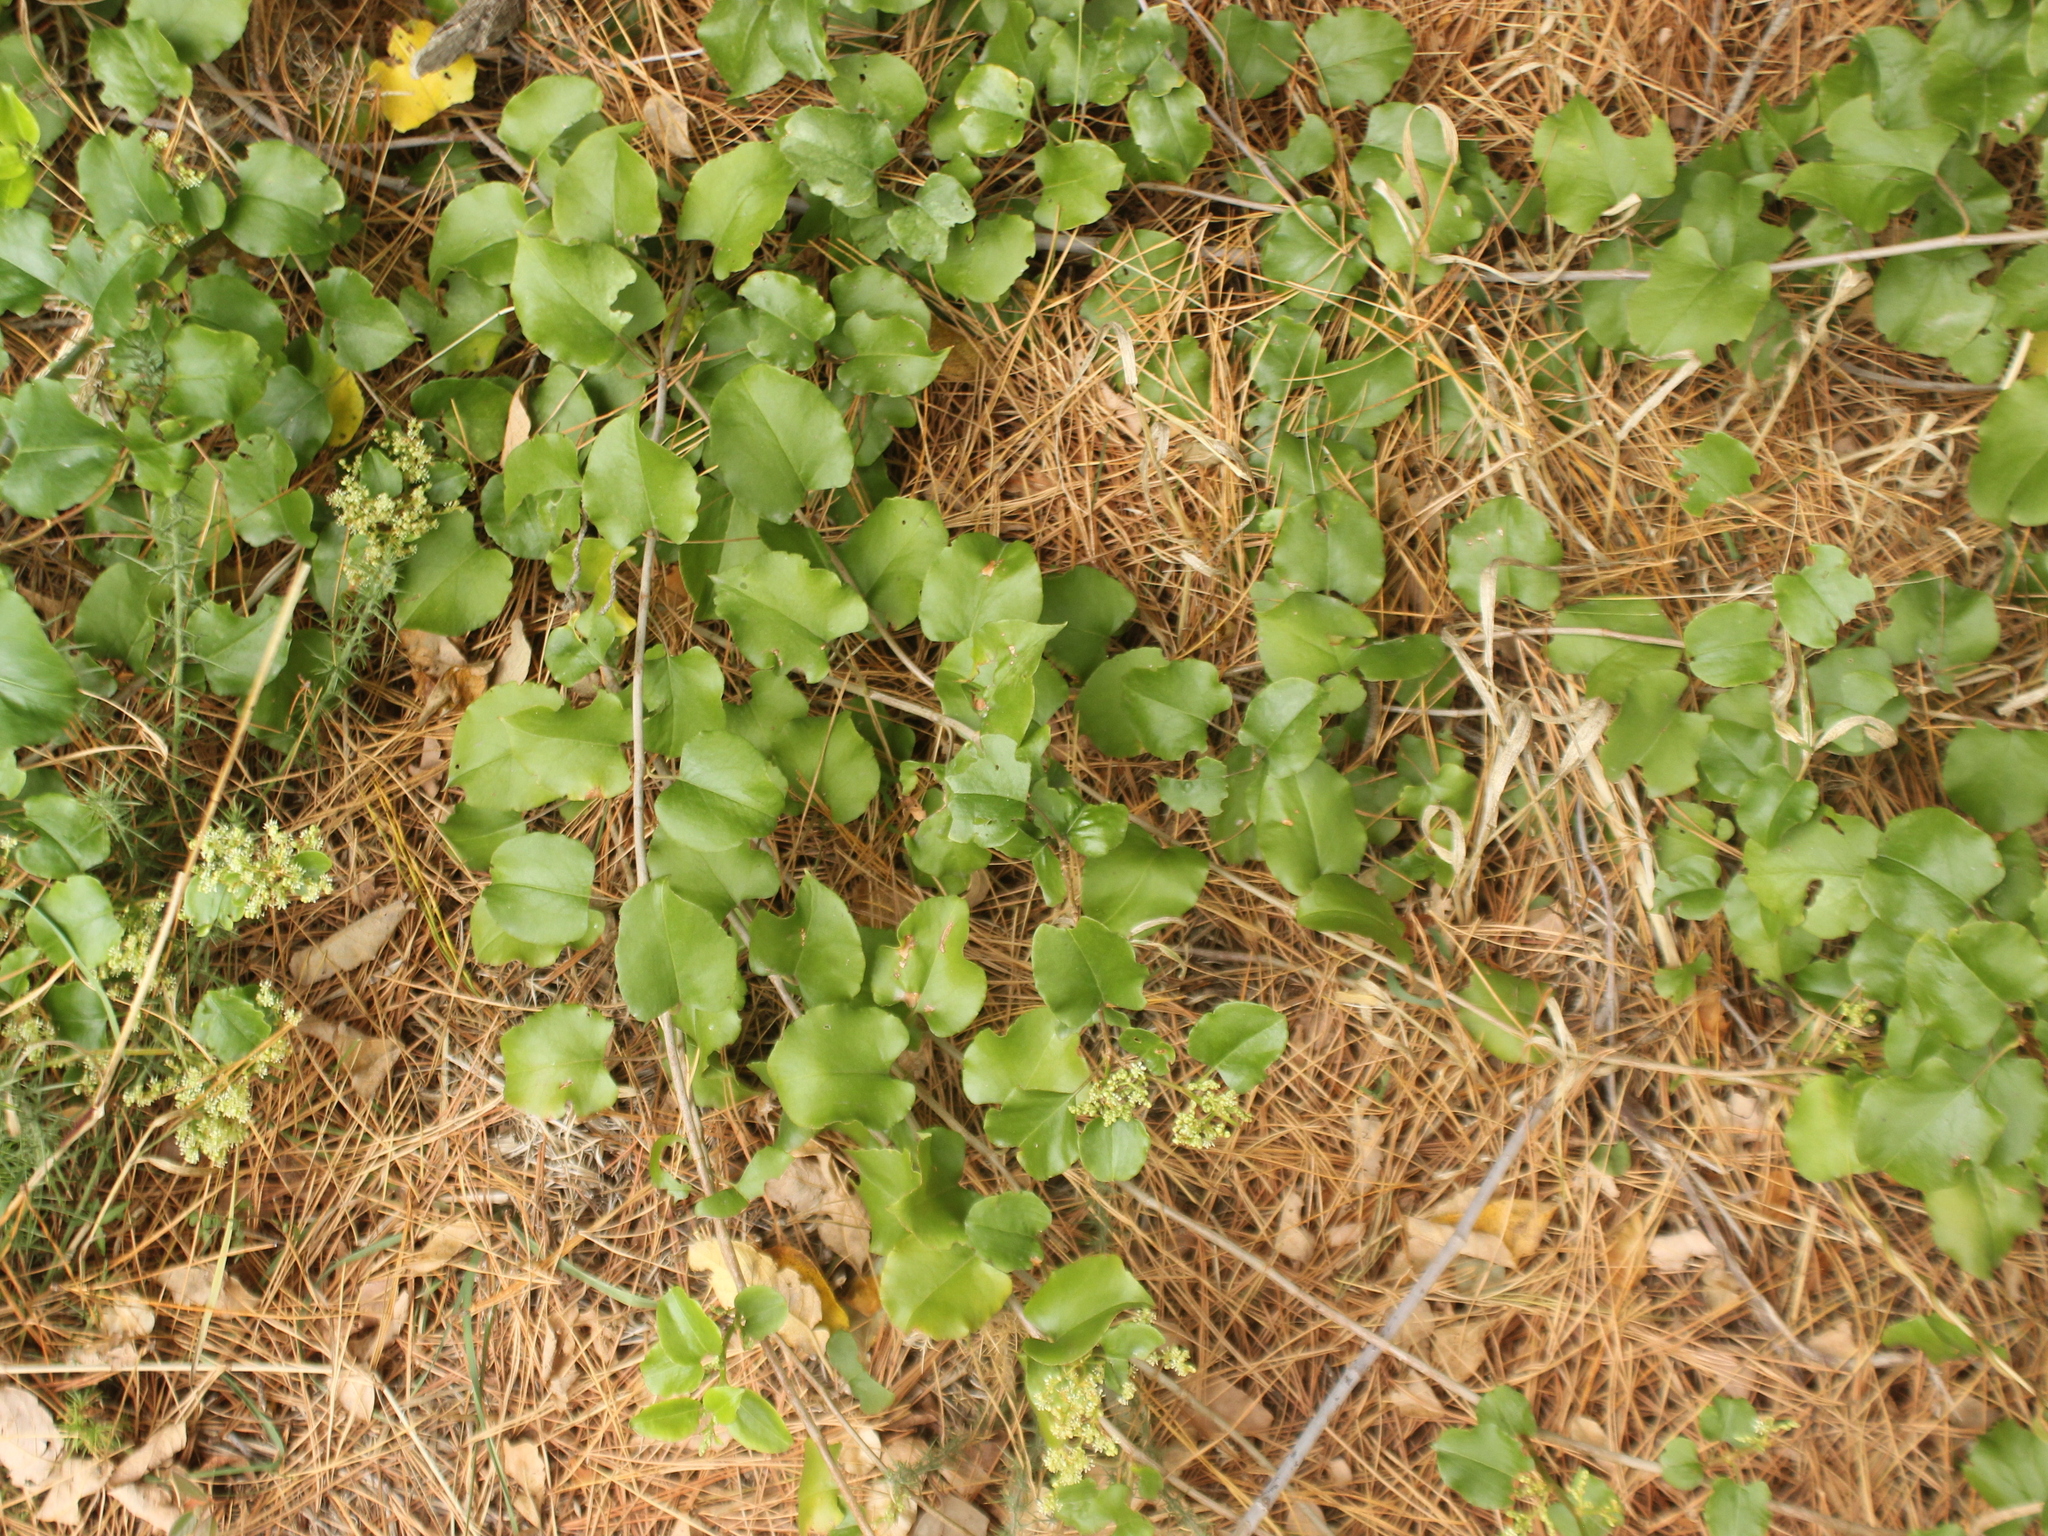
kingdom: Plantae
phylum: Tracheophyta
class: Magnoliopsida
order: Caryophyllales
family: Polygonaceae
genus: Muehlenbeckia
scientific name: Muehlenbeckia australis
